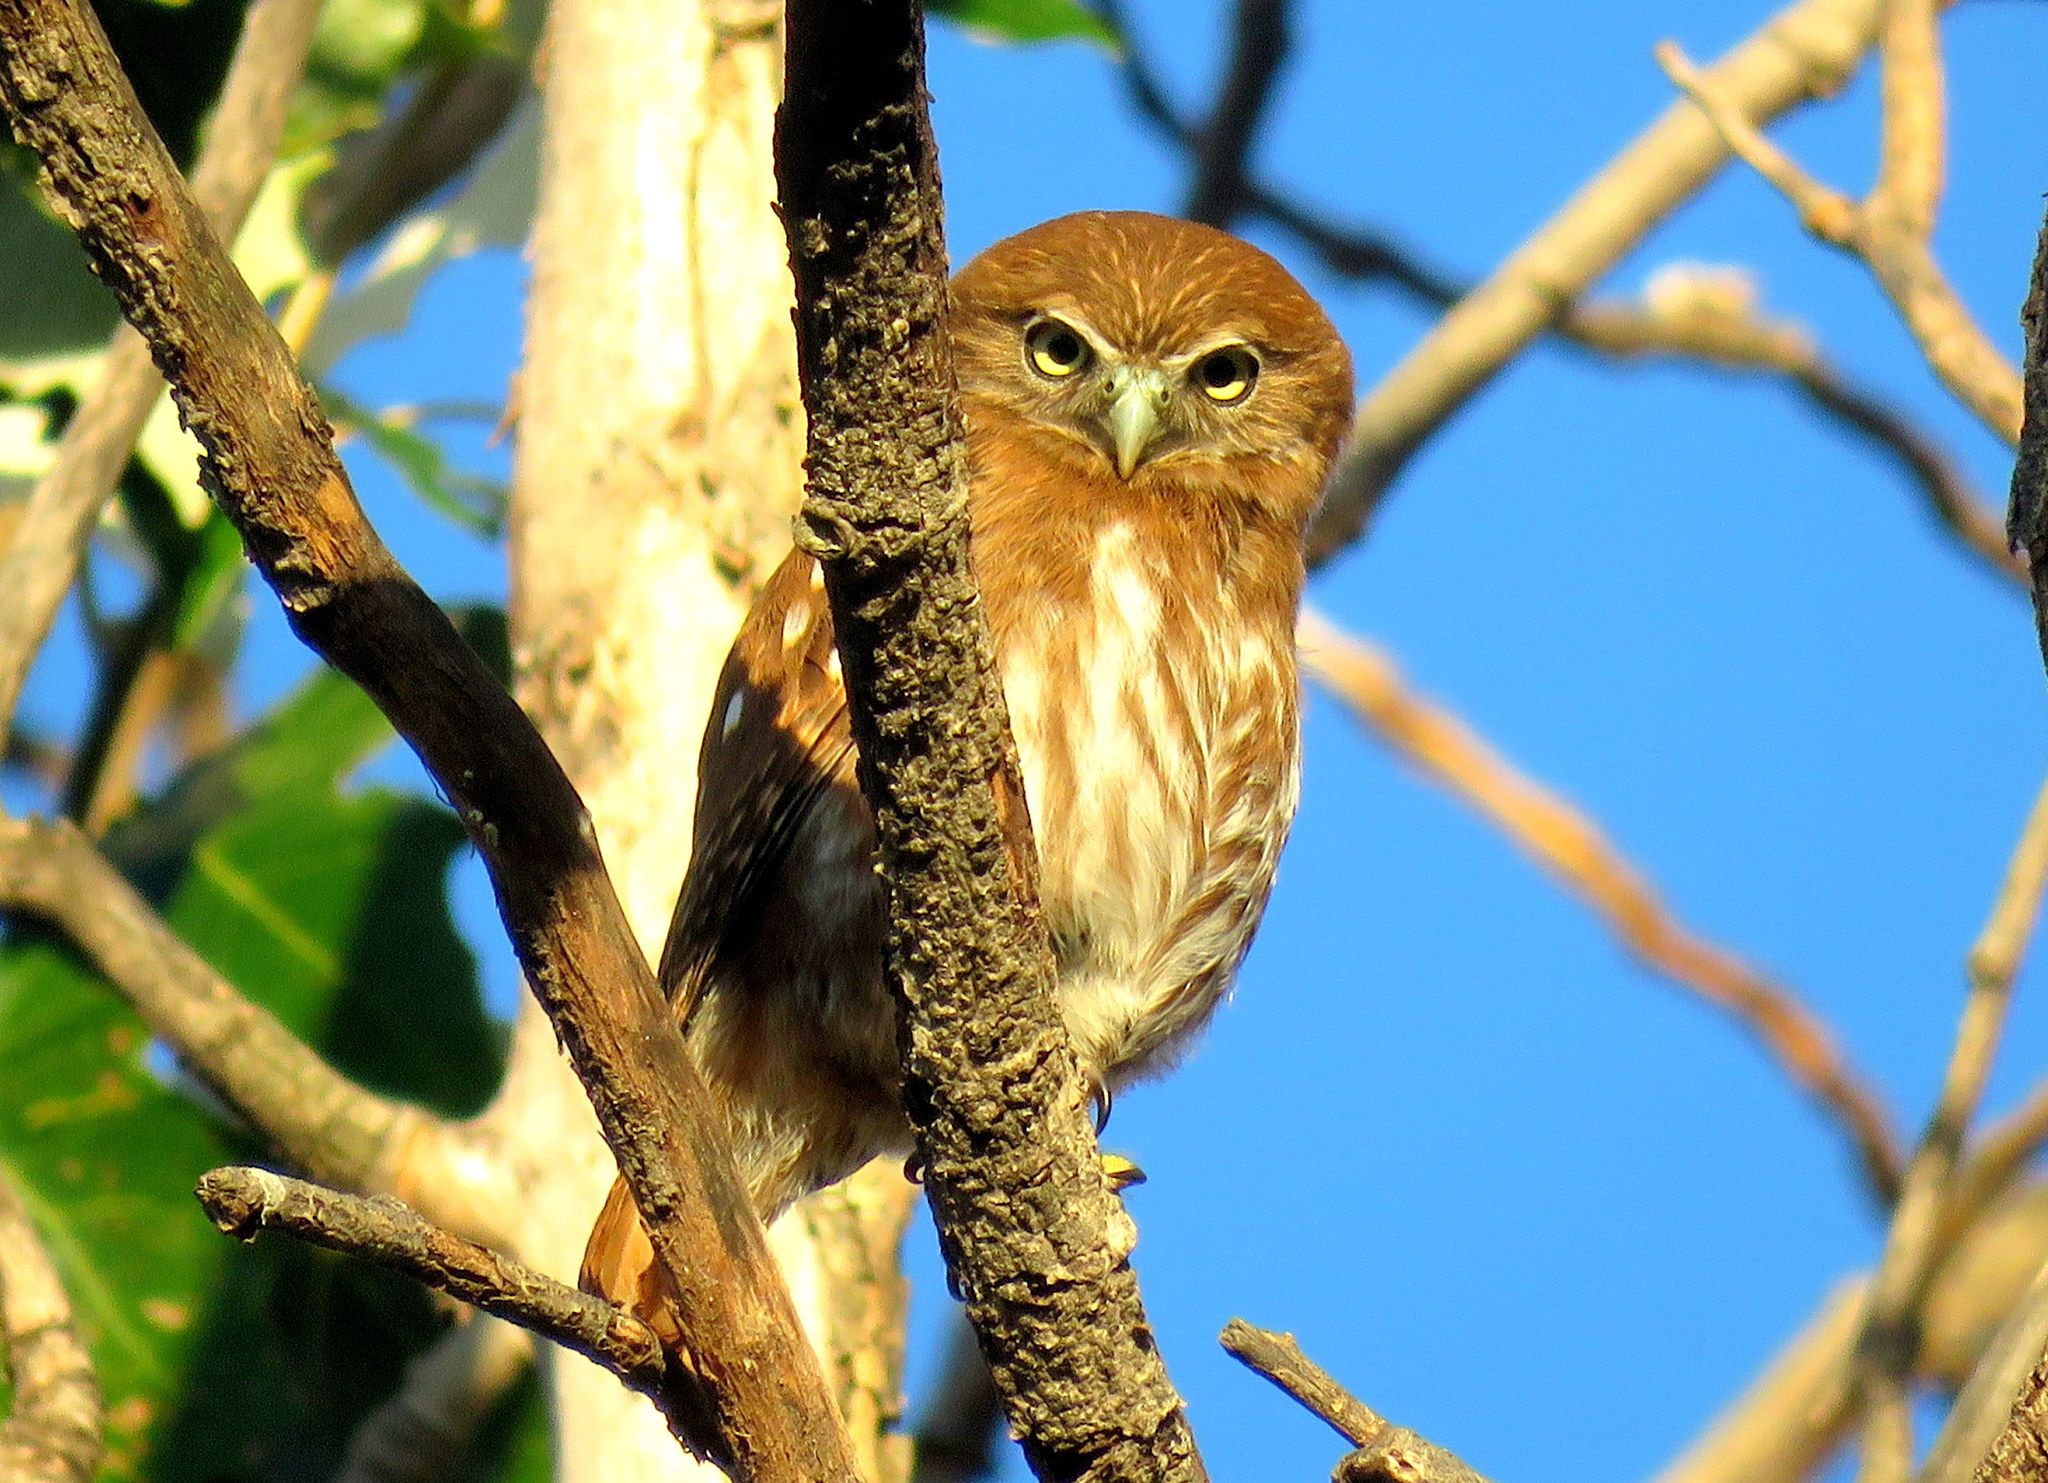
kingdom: Animalia
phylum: Chordata
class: Aves
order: Strigiformes
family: Strigidae
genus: Glaucidium
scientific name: Glaucidium brasilianum
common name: Ferruginous pygmy-owl
